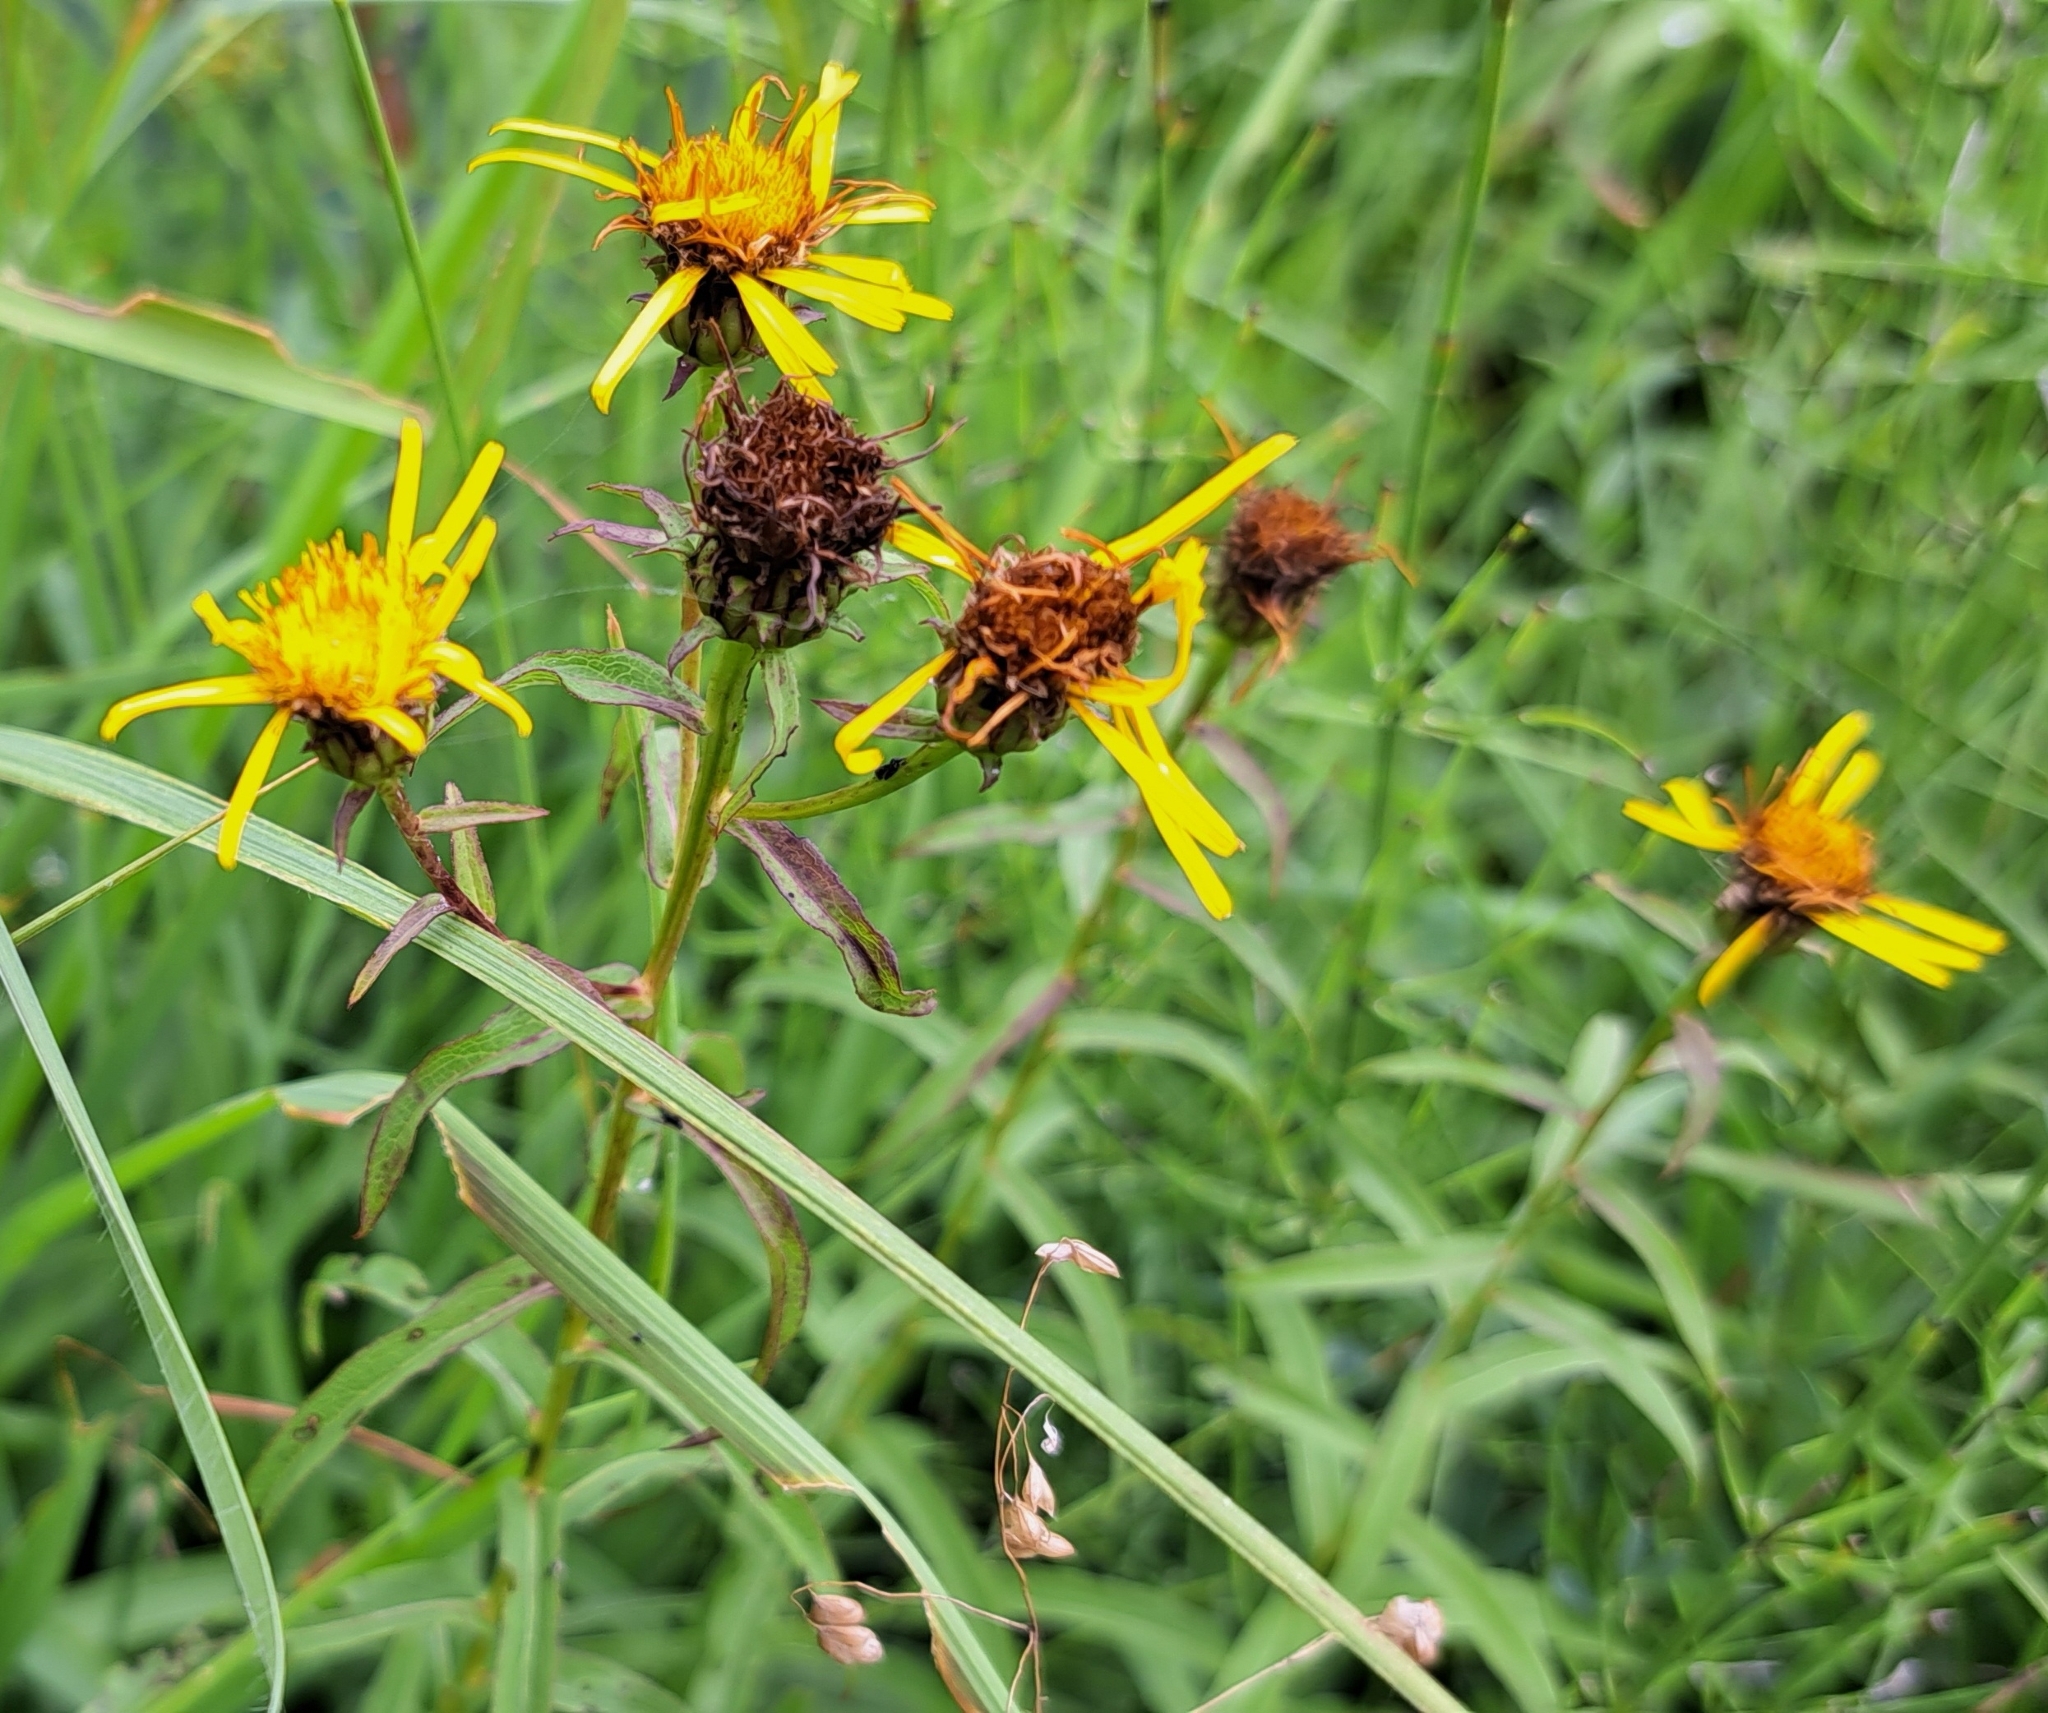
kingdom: Plantae
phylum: Tracheophyta
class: Magnoliopsida
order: Asterales
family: Asteraceae
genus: Pentanema
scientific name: Pentanema salicinum
